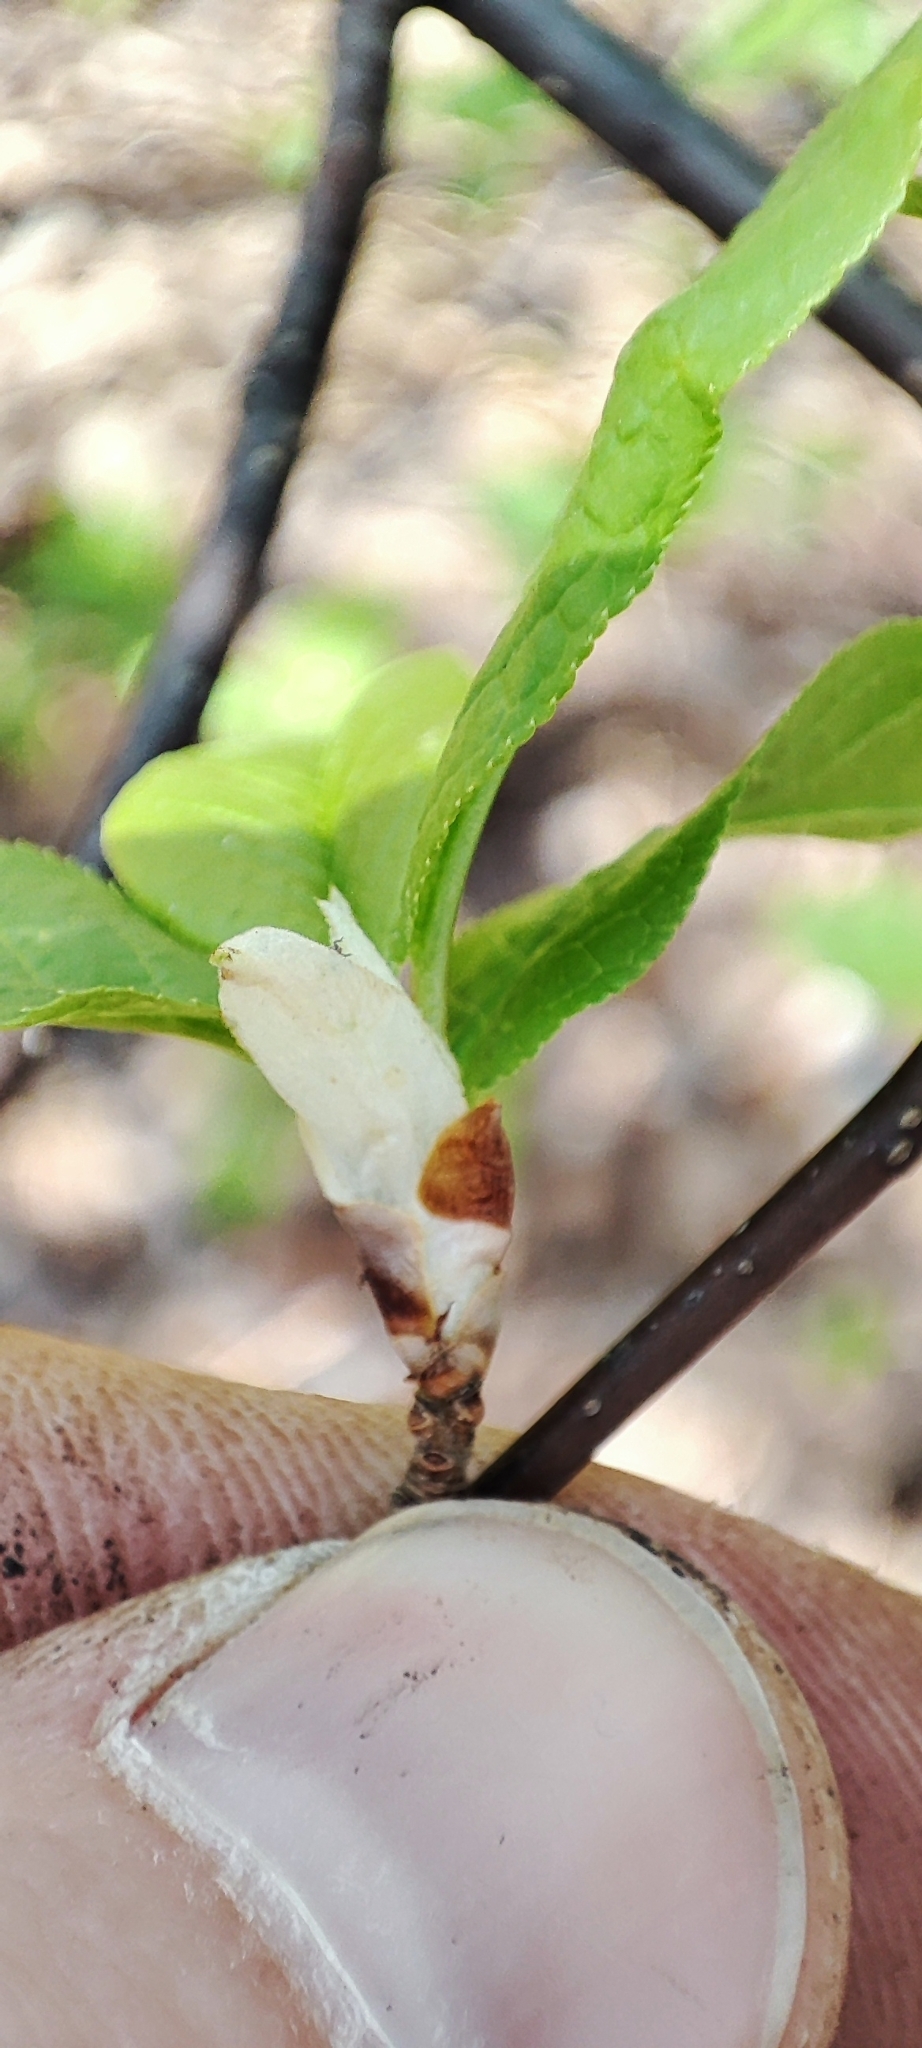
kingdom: Plantae
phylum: Tracheophyta
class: Magnoliopsida
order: Rosales
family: Rosaceae
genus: Prunus
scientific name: Prunus padus
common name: Bird cherry
